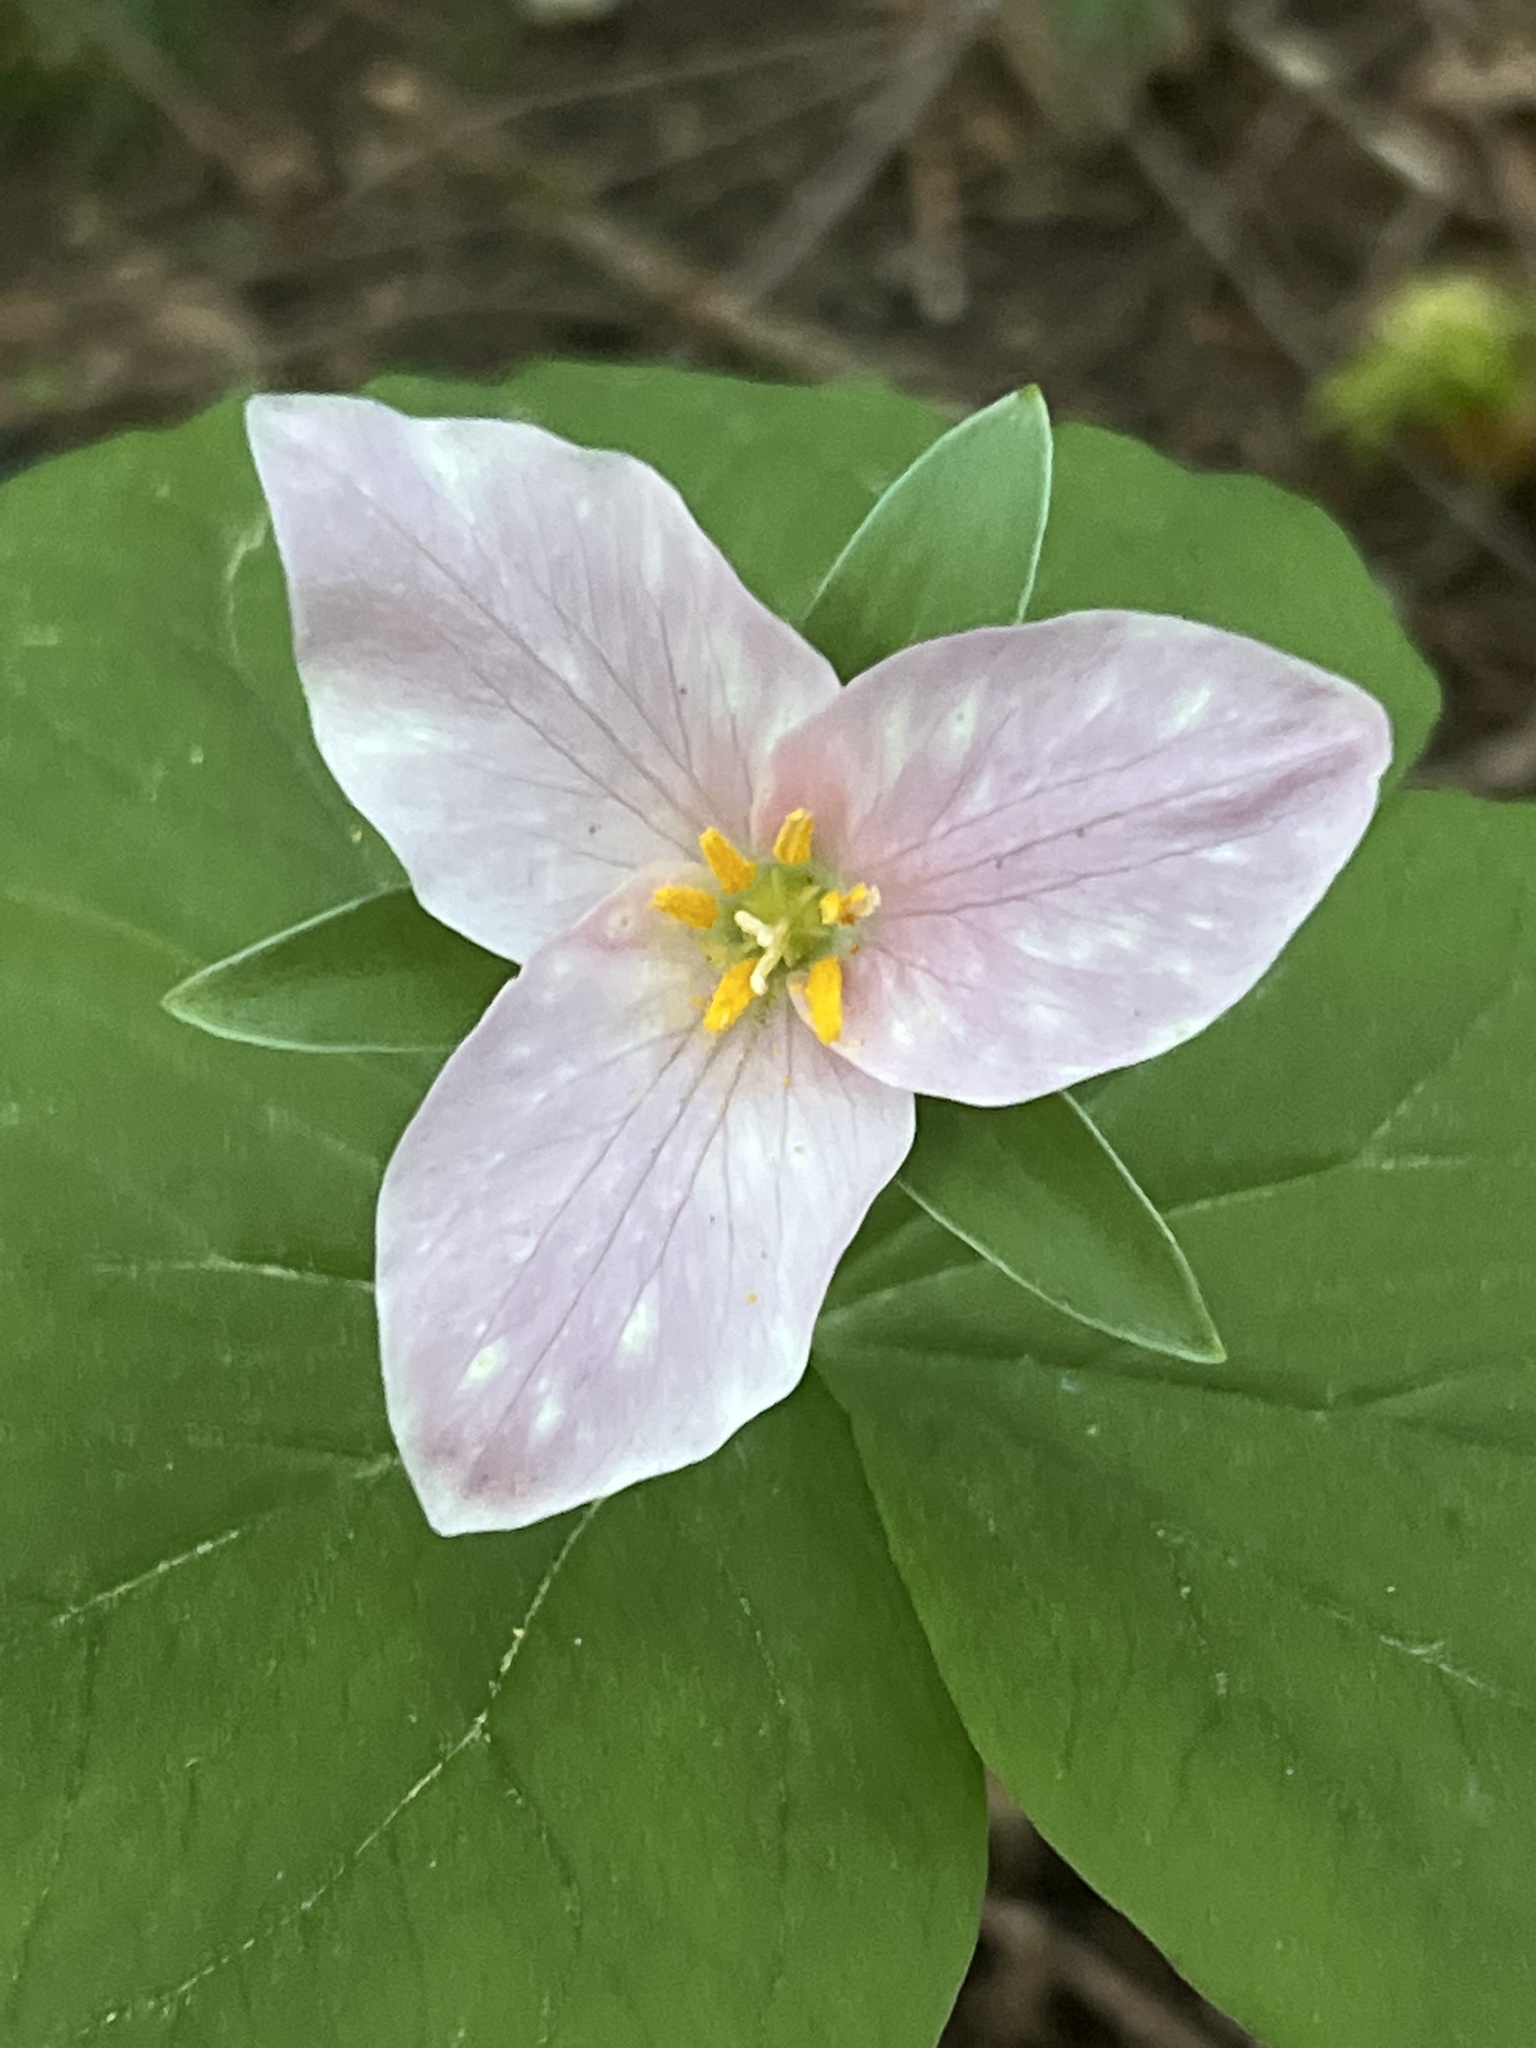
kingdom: Plantae
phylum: Tracheophyta
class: Liliopsida
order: Liliales
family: Melanthiaceae
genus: Trillium
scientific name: Trillium ovatum
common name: Pacific trillium
